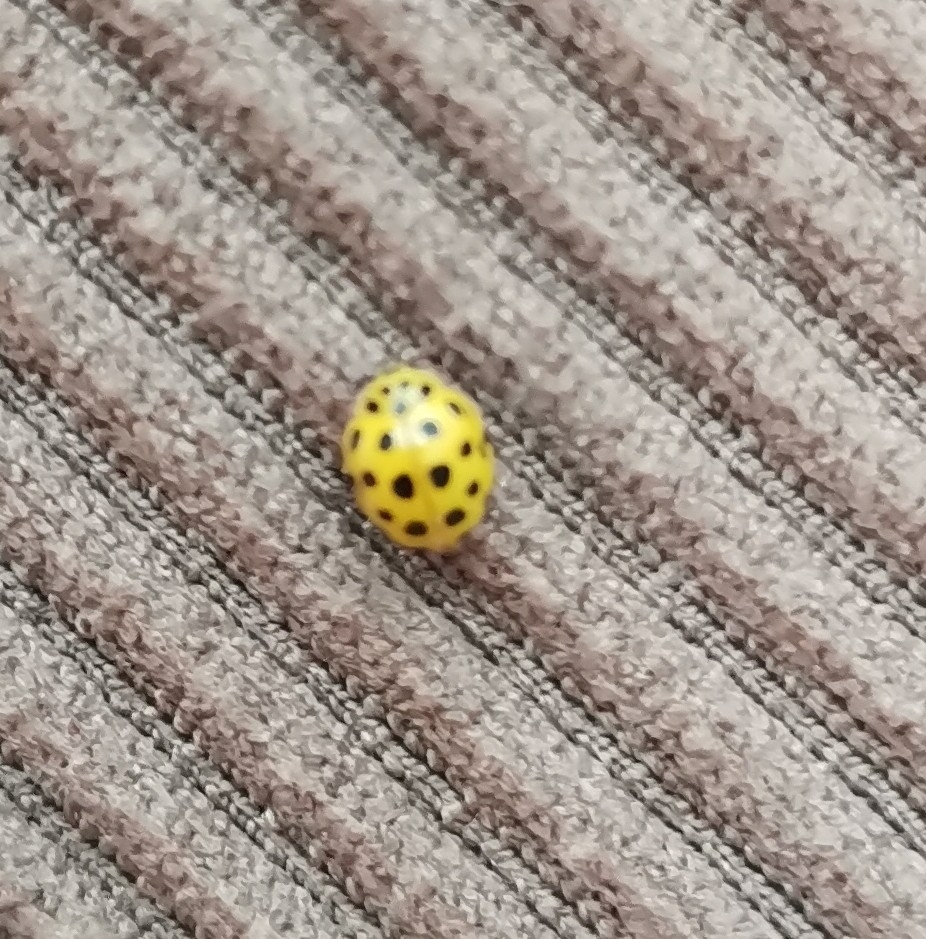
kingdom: Animalia
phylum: Arthropoda
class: Insecta
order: Coleoptera
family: Coccinellidae
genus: Psyllobora
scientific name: Psyllobora vigintiduopunctata
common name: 22-spot ladybird
